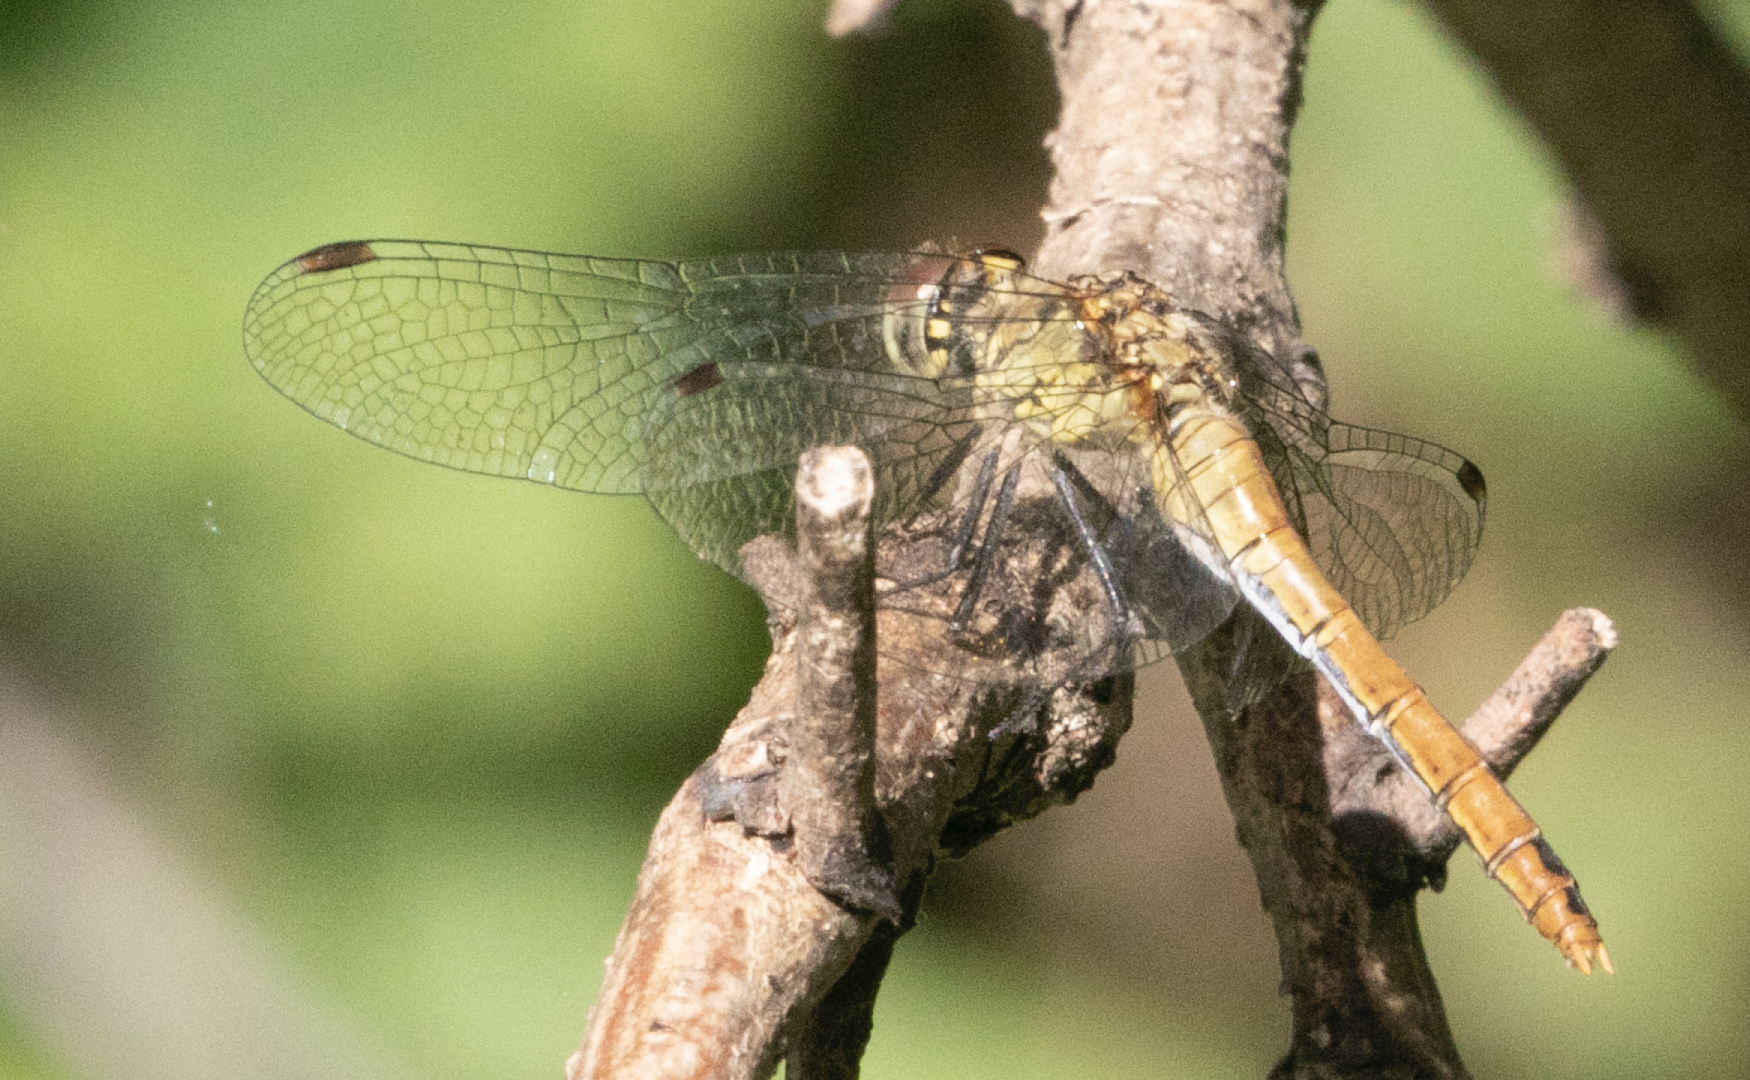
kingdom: Animalia
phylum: Arthropoda
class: Insecta
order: Odonata
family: Libellulidae
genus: Sympetrum
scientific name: Sympetrum sanguineum
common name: Ruddy darter
